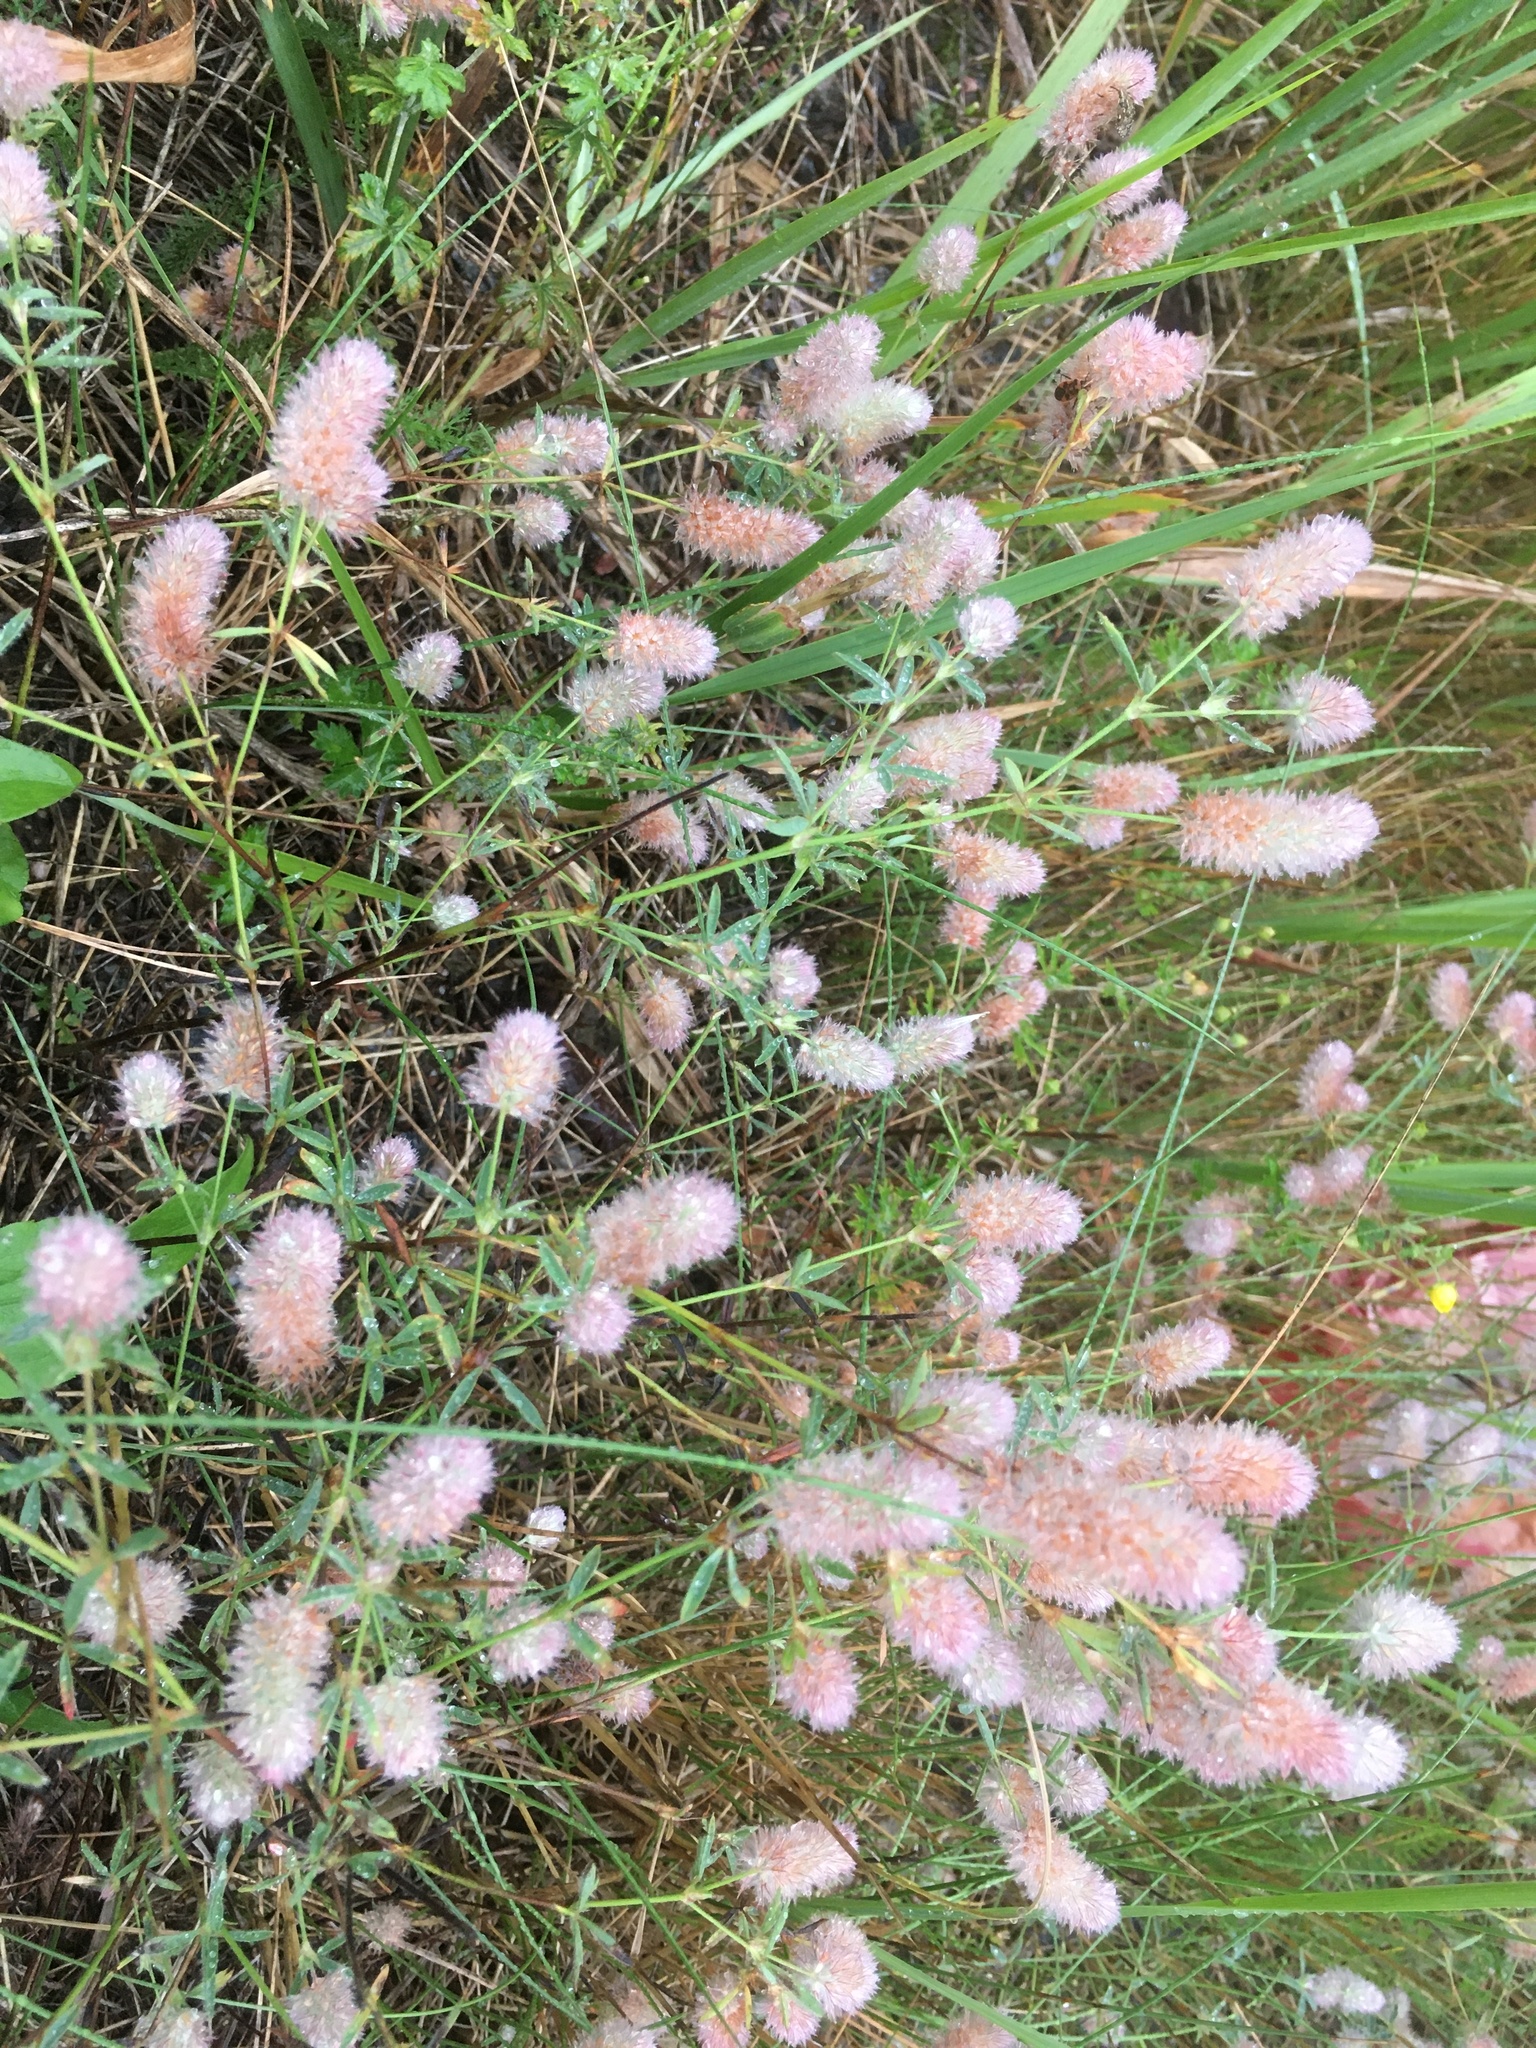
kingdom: Plantae
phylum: Tracheophyta
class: Magnoliopsida
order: Fabales
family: Fabaceae
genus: Trifolium
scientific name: Trifolium arvense
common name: Hare's-foot clover
